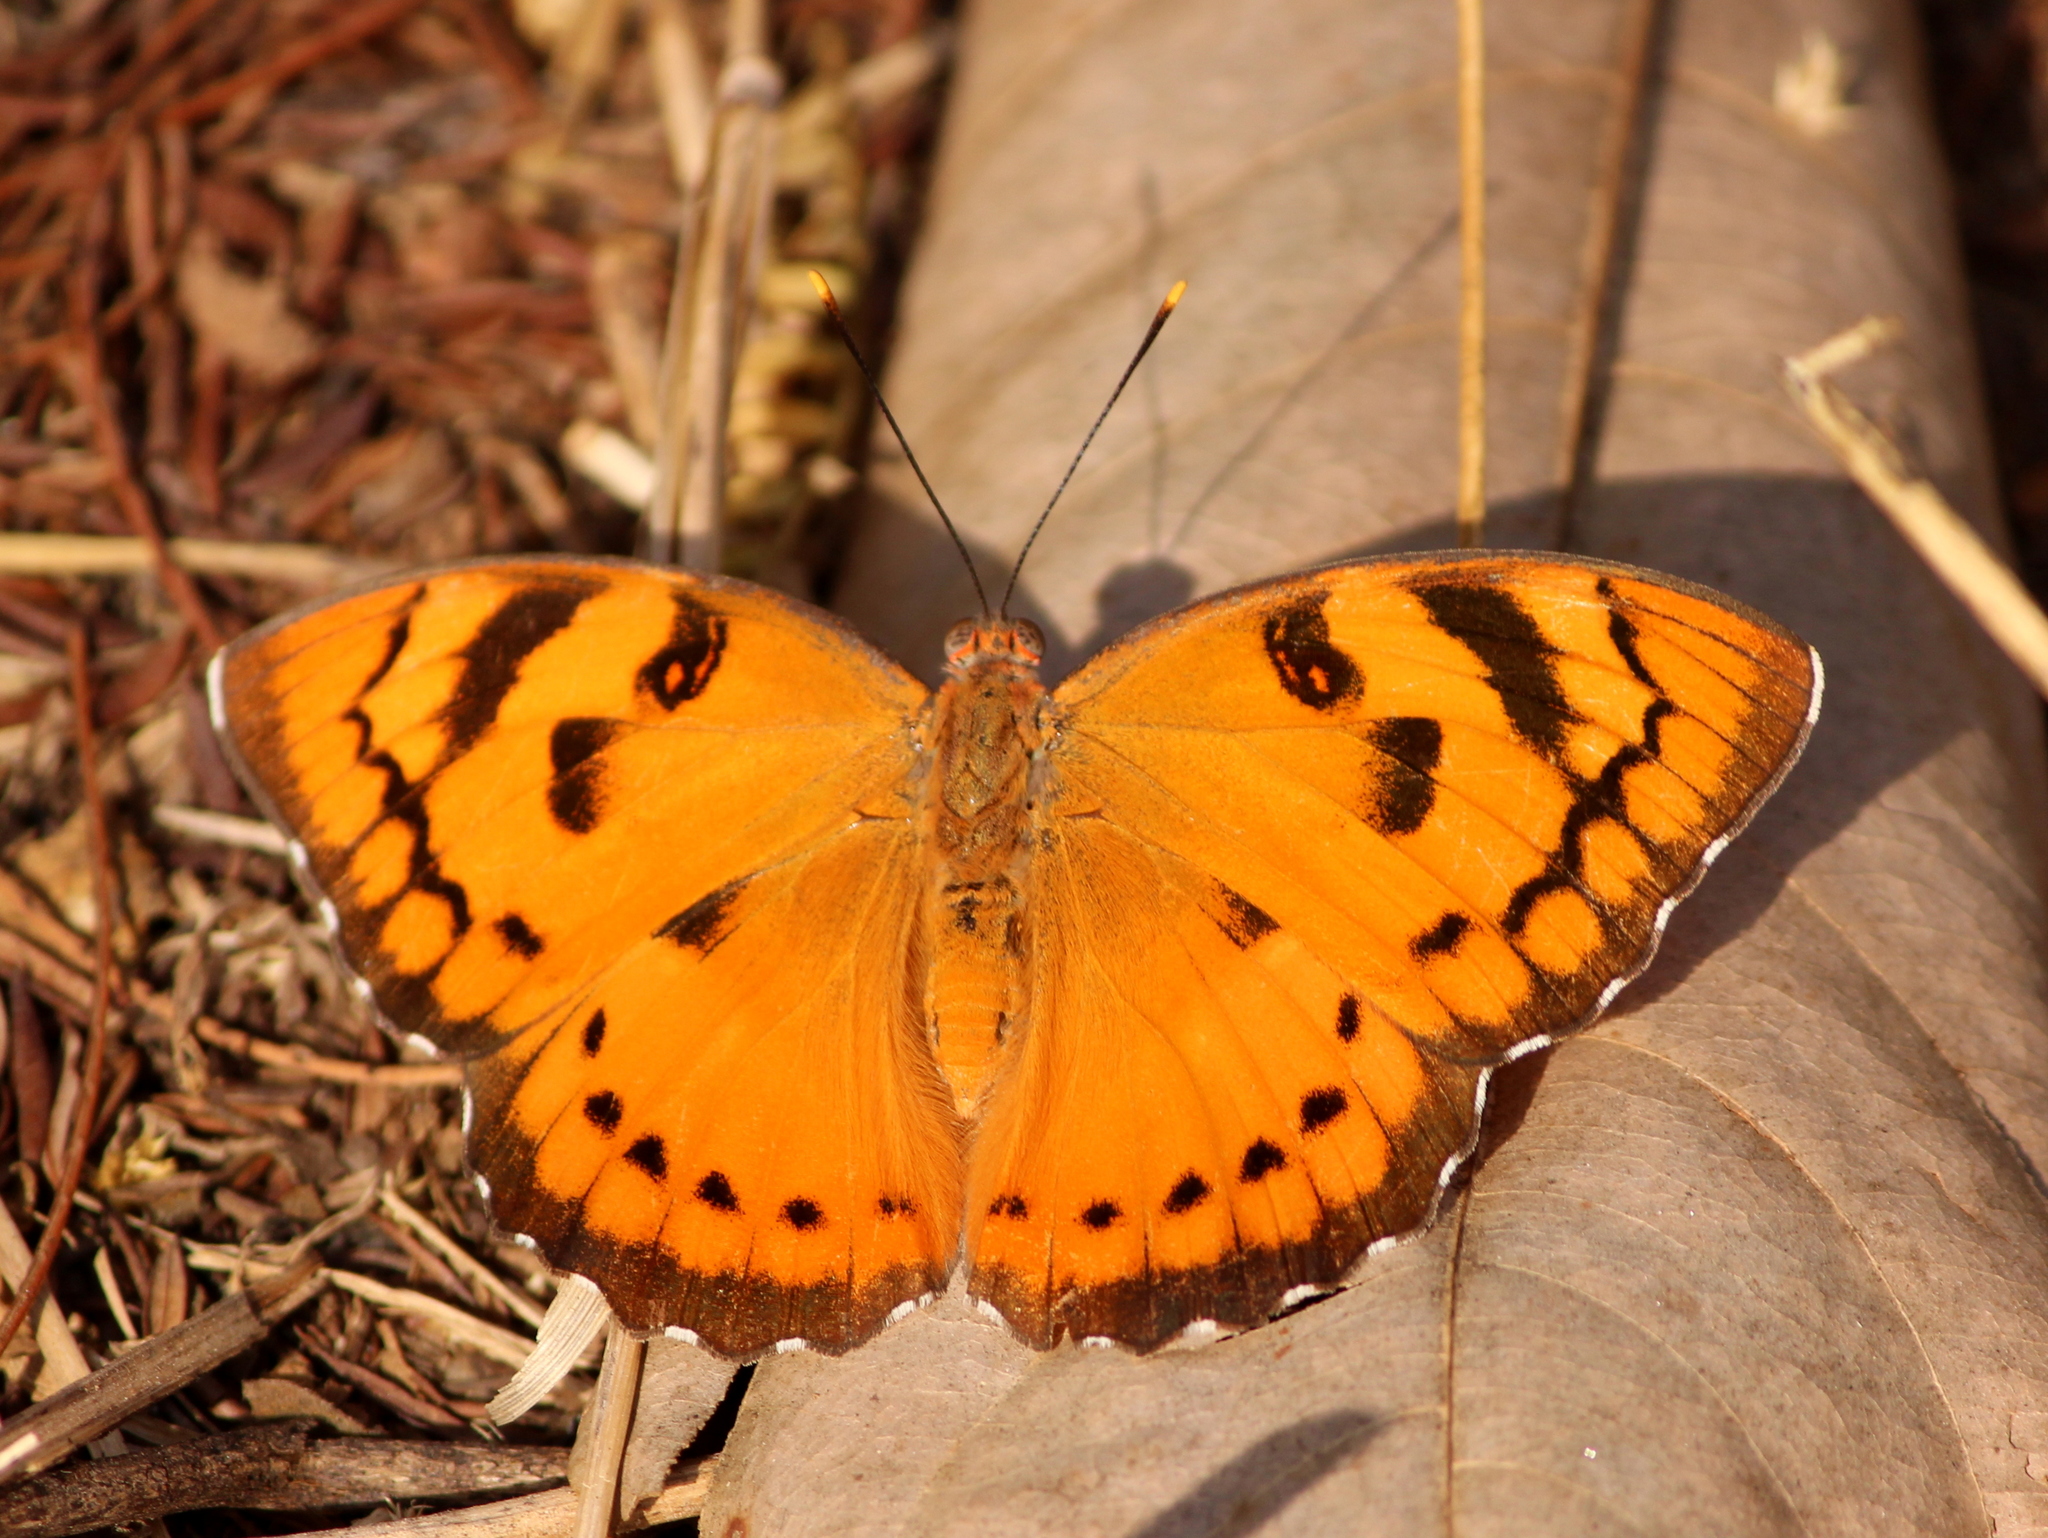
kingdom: Animalia
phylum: Arthropoda
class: Insecta
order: Lepidoptera
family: Nymphalidae
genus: Euthalia
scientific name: Euthalia nais
